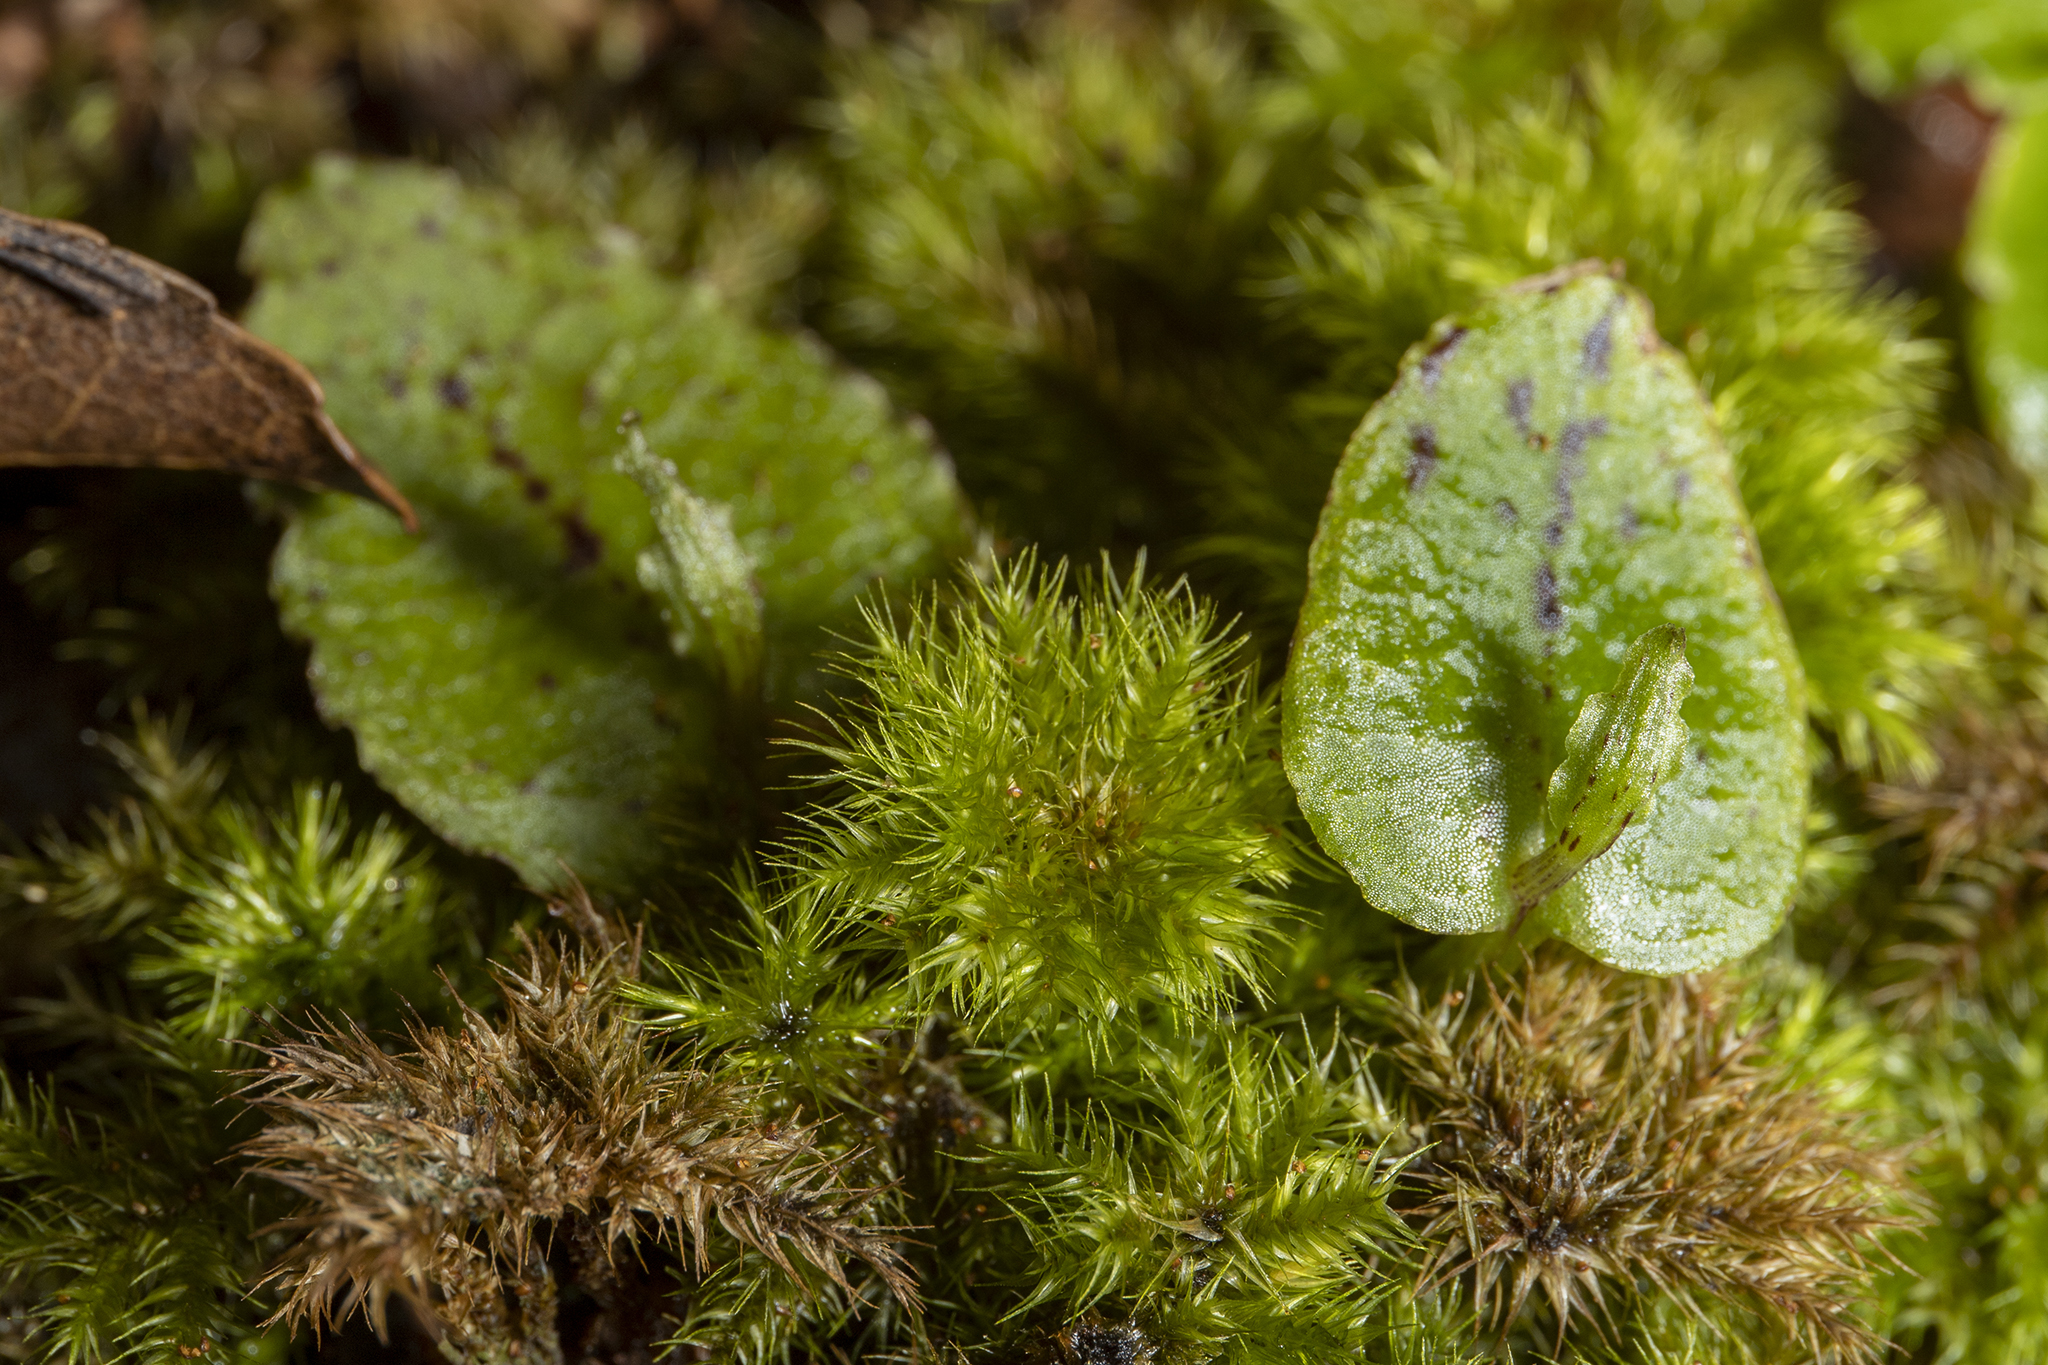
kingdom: Plantae
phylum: Tracheophyta
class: Liliopsida
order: Asparagales
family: Orchidaceae
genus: Corybas
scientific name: Corybas oblongus
